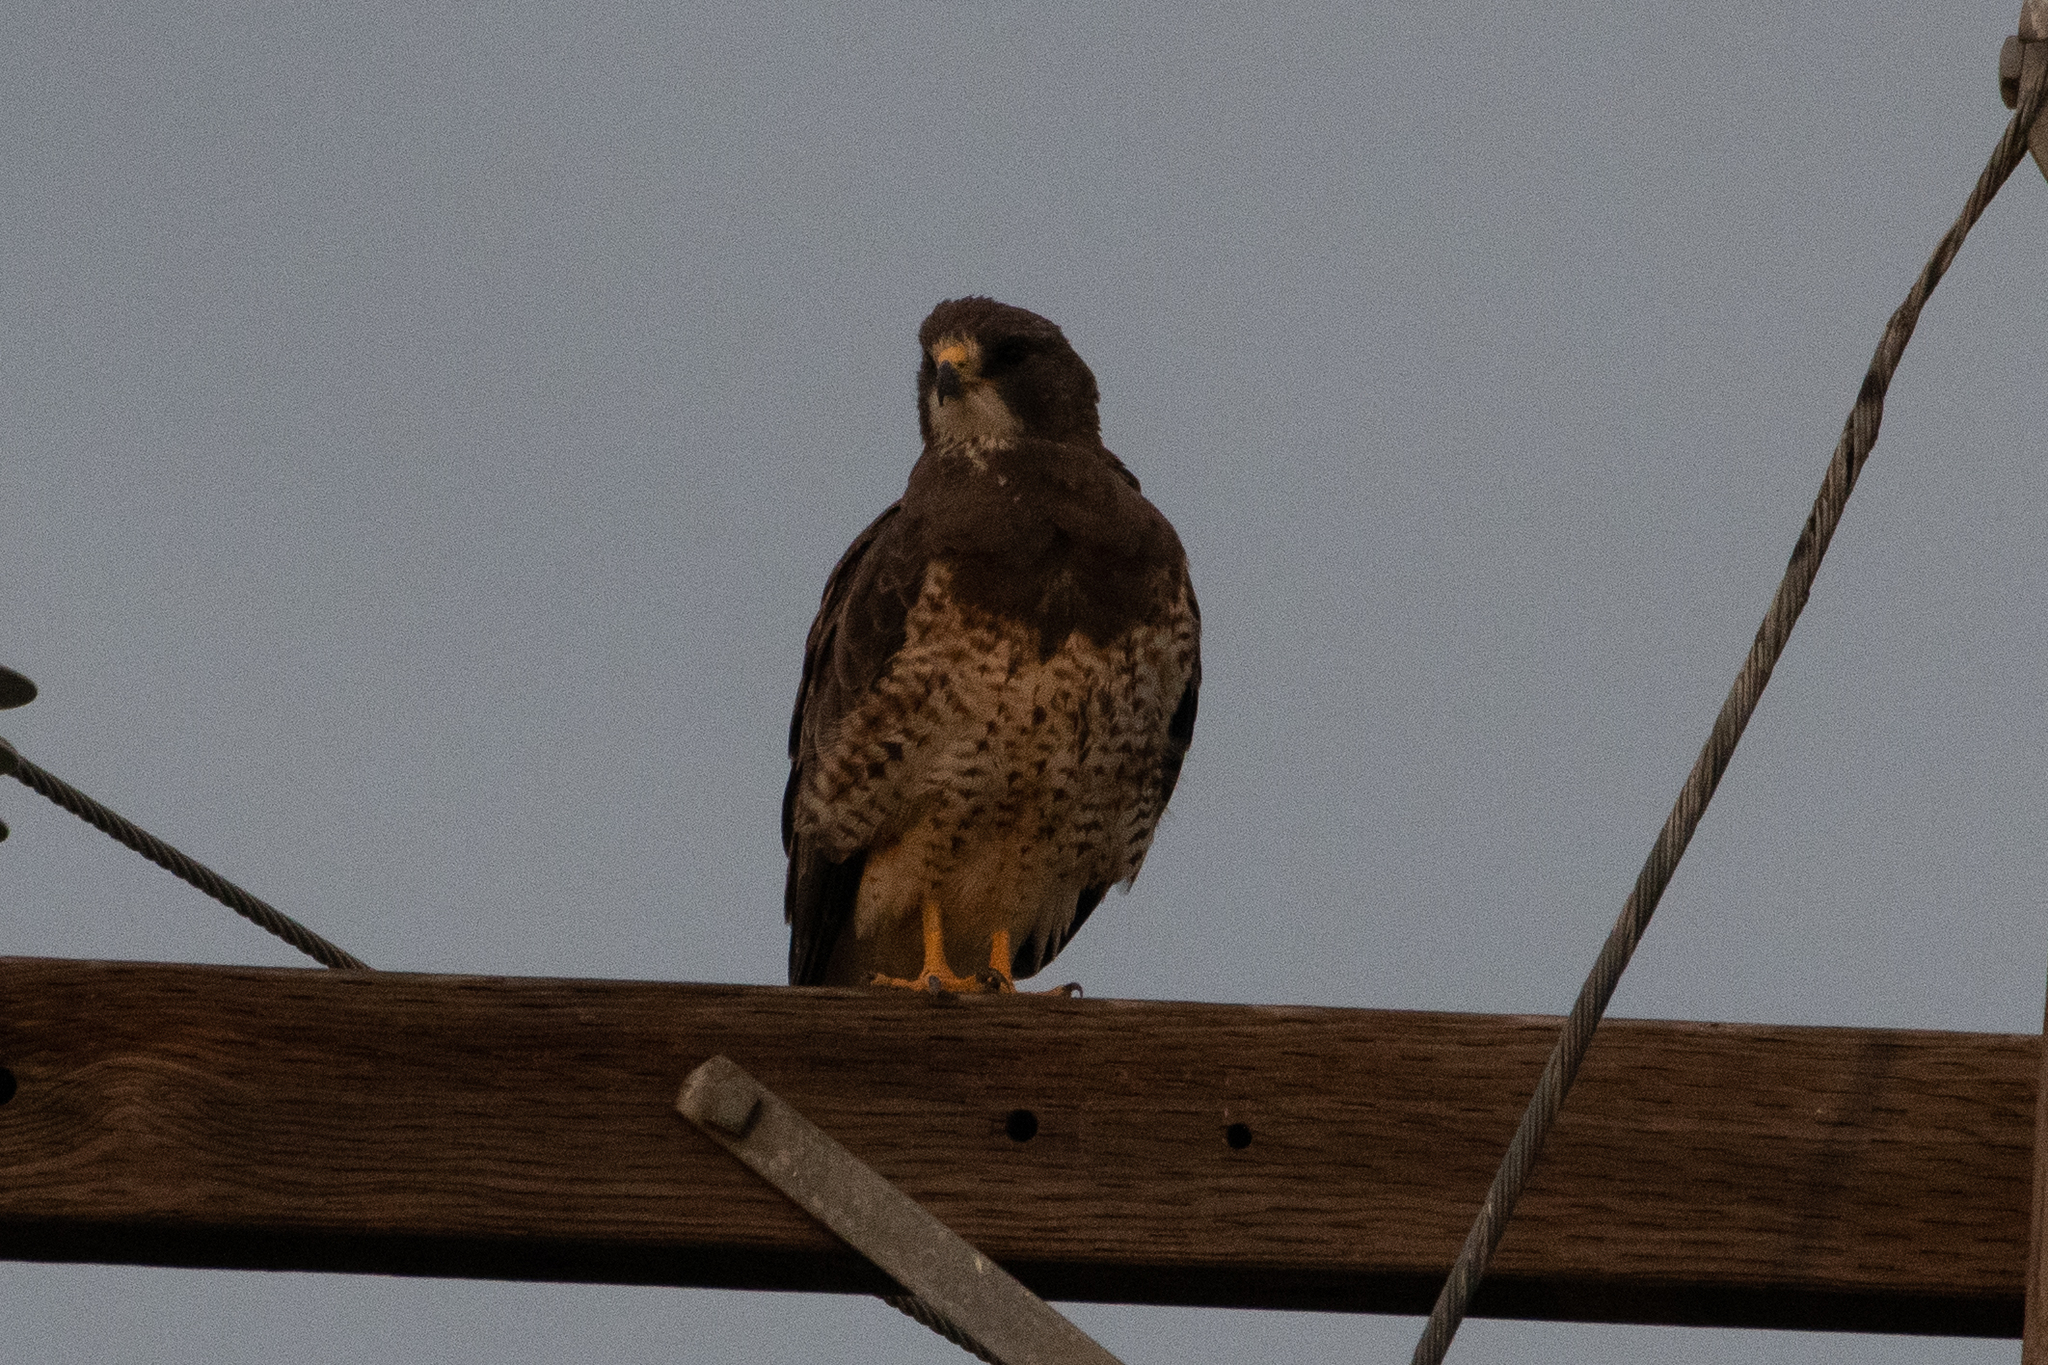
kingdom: Animalia
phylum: Chordata
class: Aves
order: Accipitriformes
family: Accipitridae
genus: Buteo
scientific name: Buteo swainsoni
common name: Swainson's hawk
